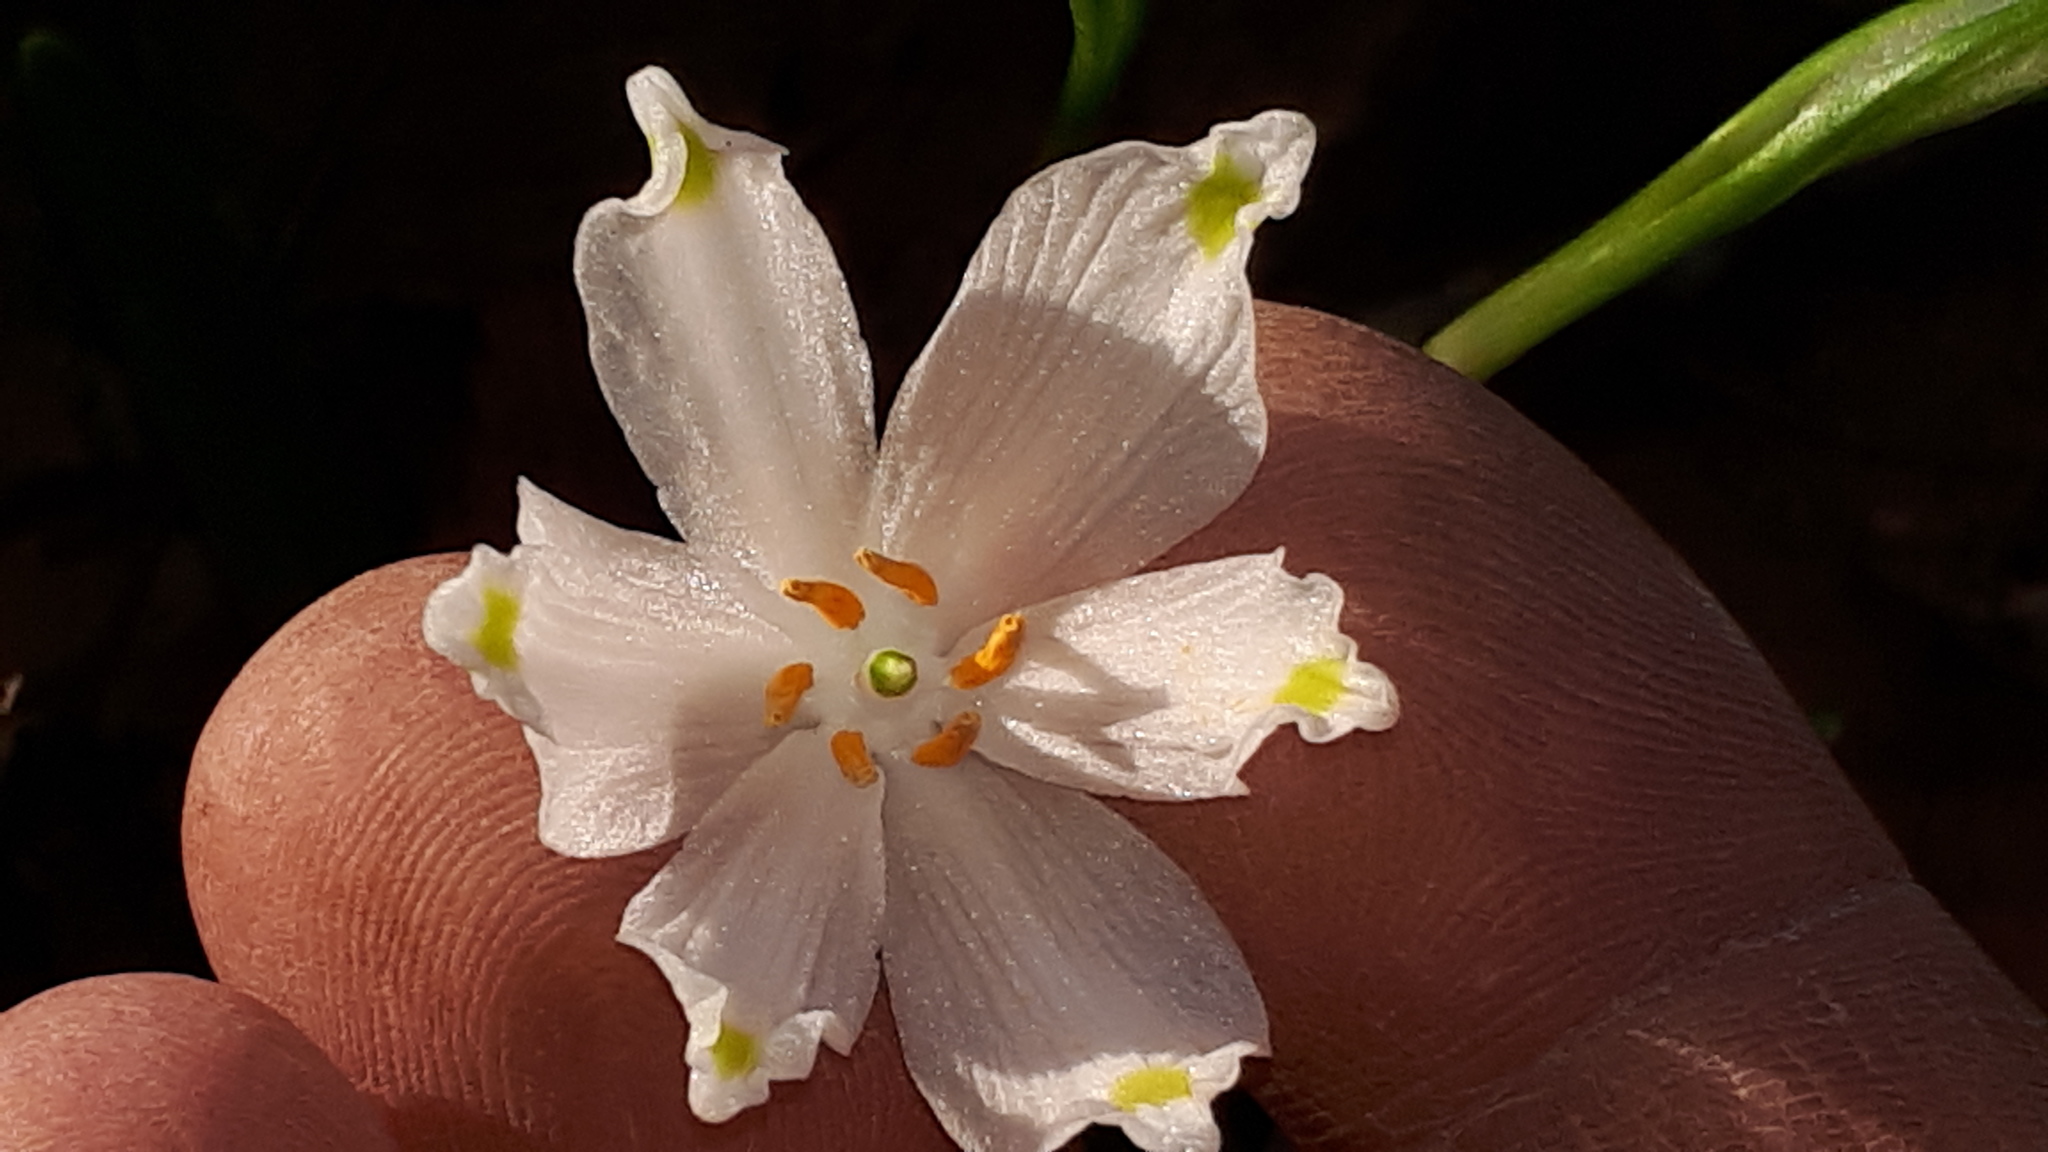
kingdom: Plantae
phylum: Tracheophyta
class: Liliopsida
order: Asparagales
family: Amaryllidaceae
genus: Leucojum
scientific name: Leucojum vernum
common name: Spring snowflake
